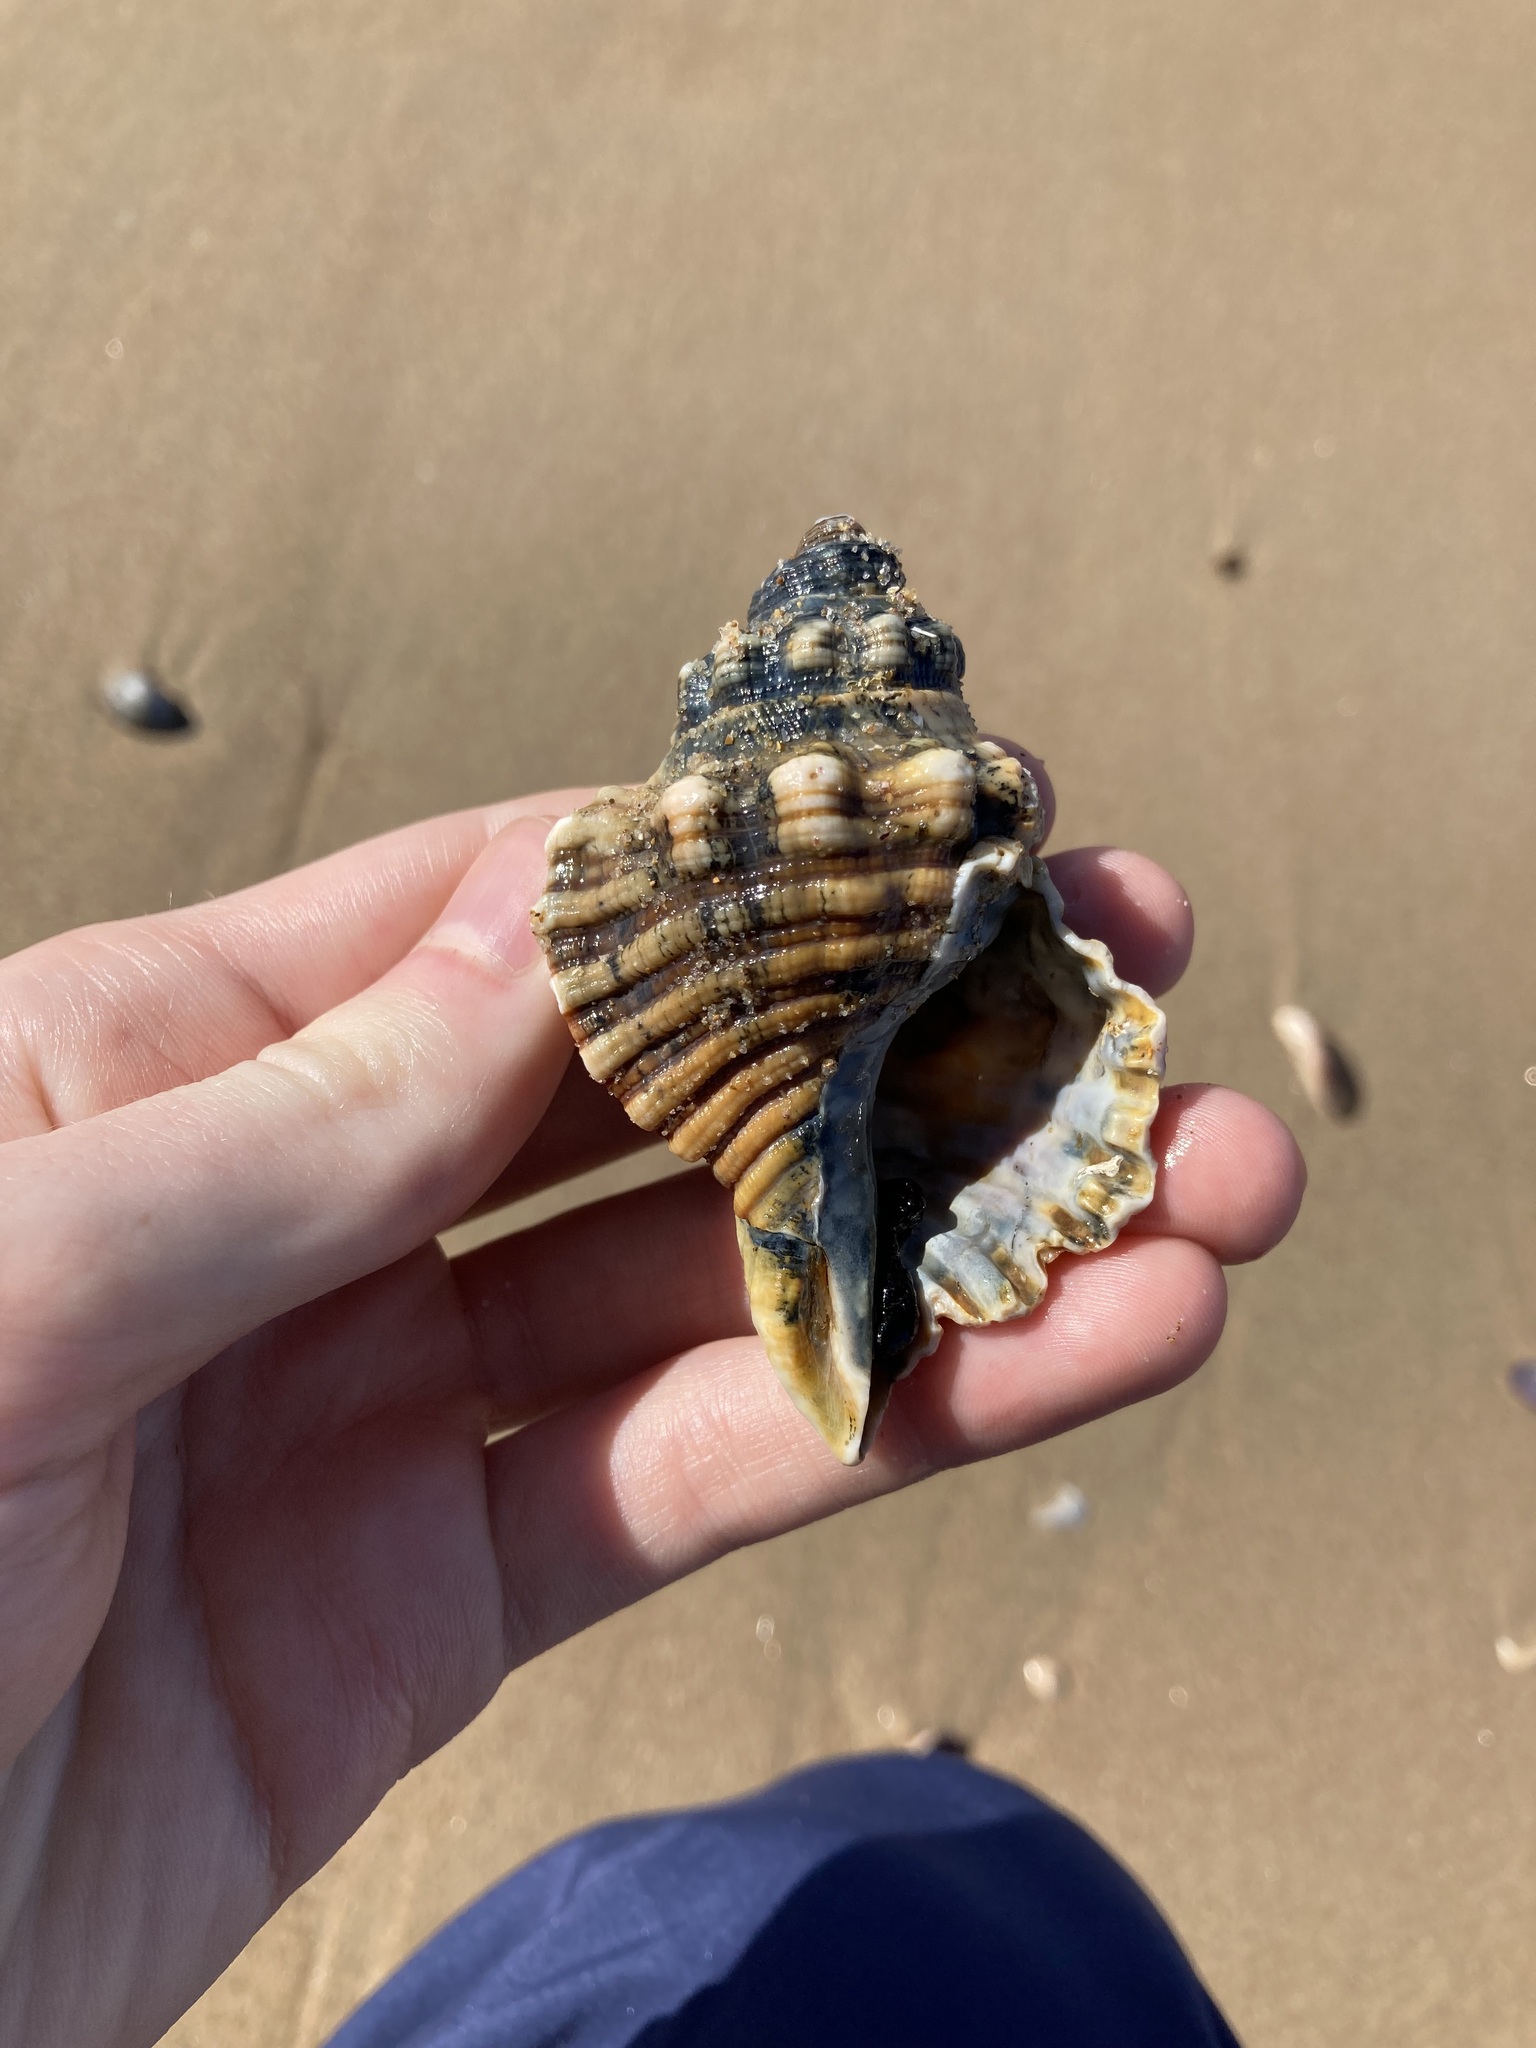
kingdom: Animalia
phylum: Mollusca
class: Gastropoda
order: Littorinimorpha
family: Cymatiidae
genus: Cabestana
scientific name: Cabestana spengleri
